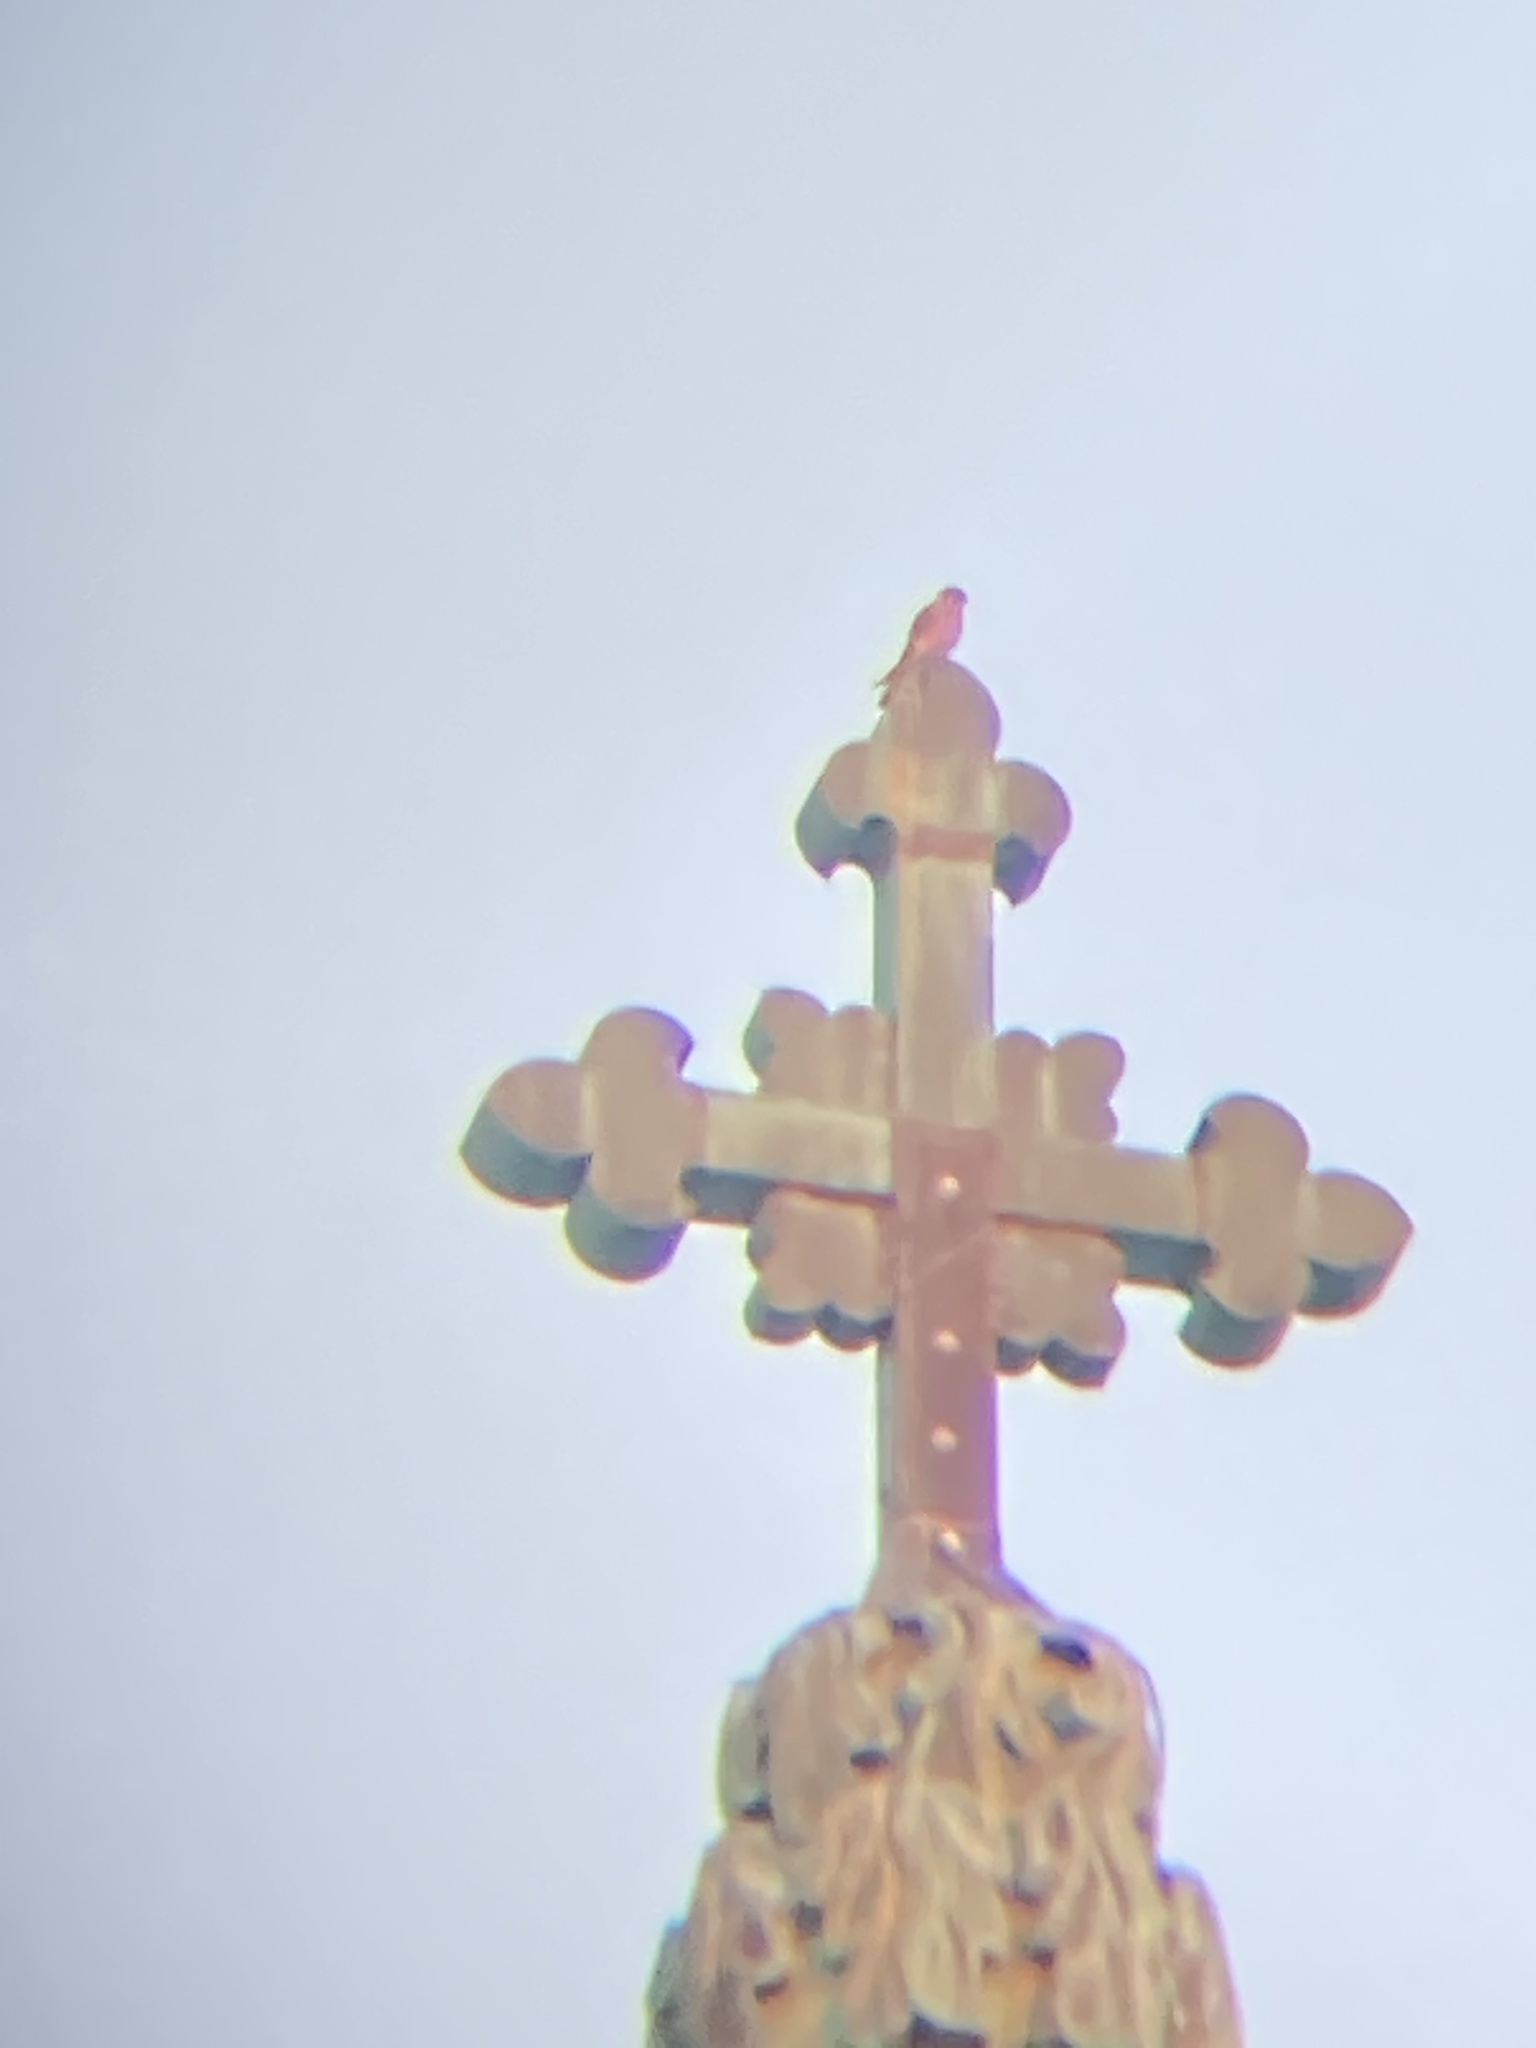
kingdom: Animalia
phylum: Chordata
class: Aves
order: Falconiformes
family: Falconidae
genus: Falco
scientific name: Falco sparverius
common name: American kestrel
